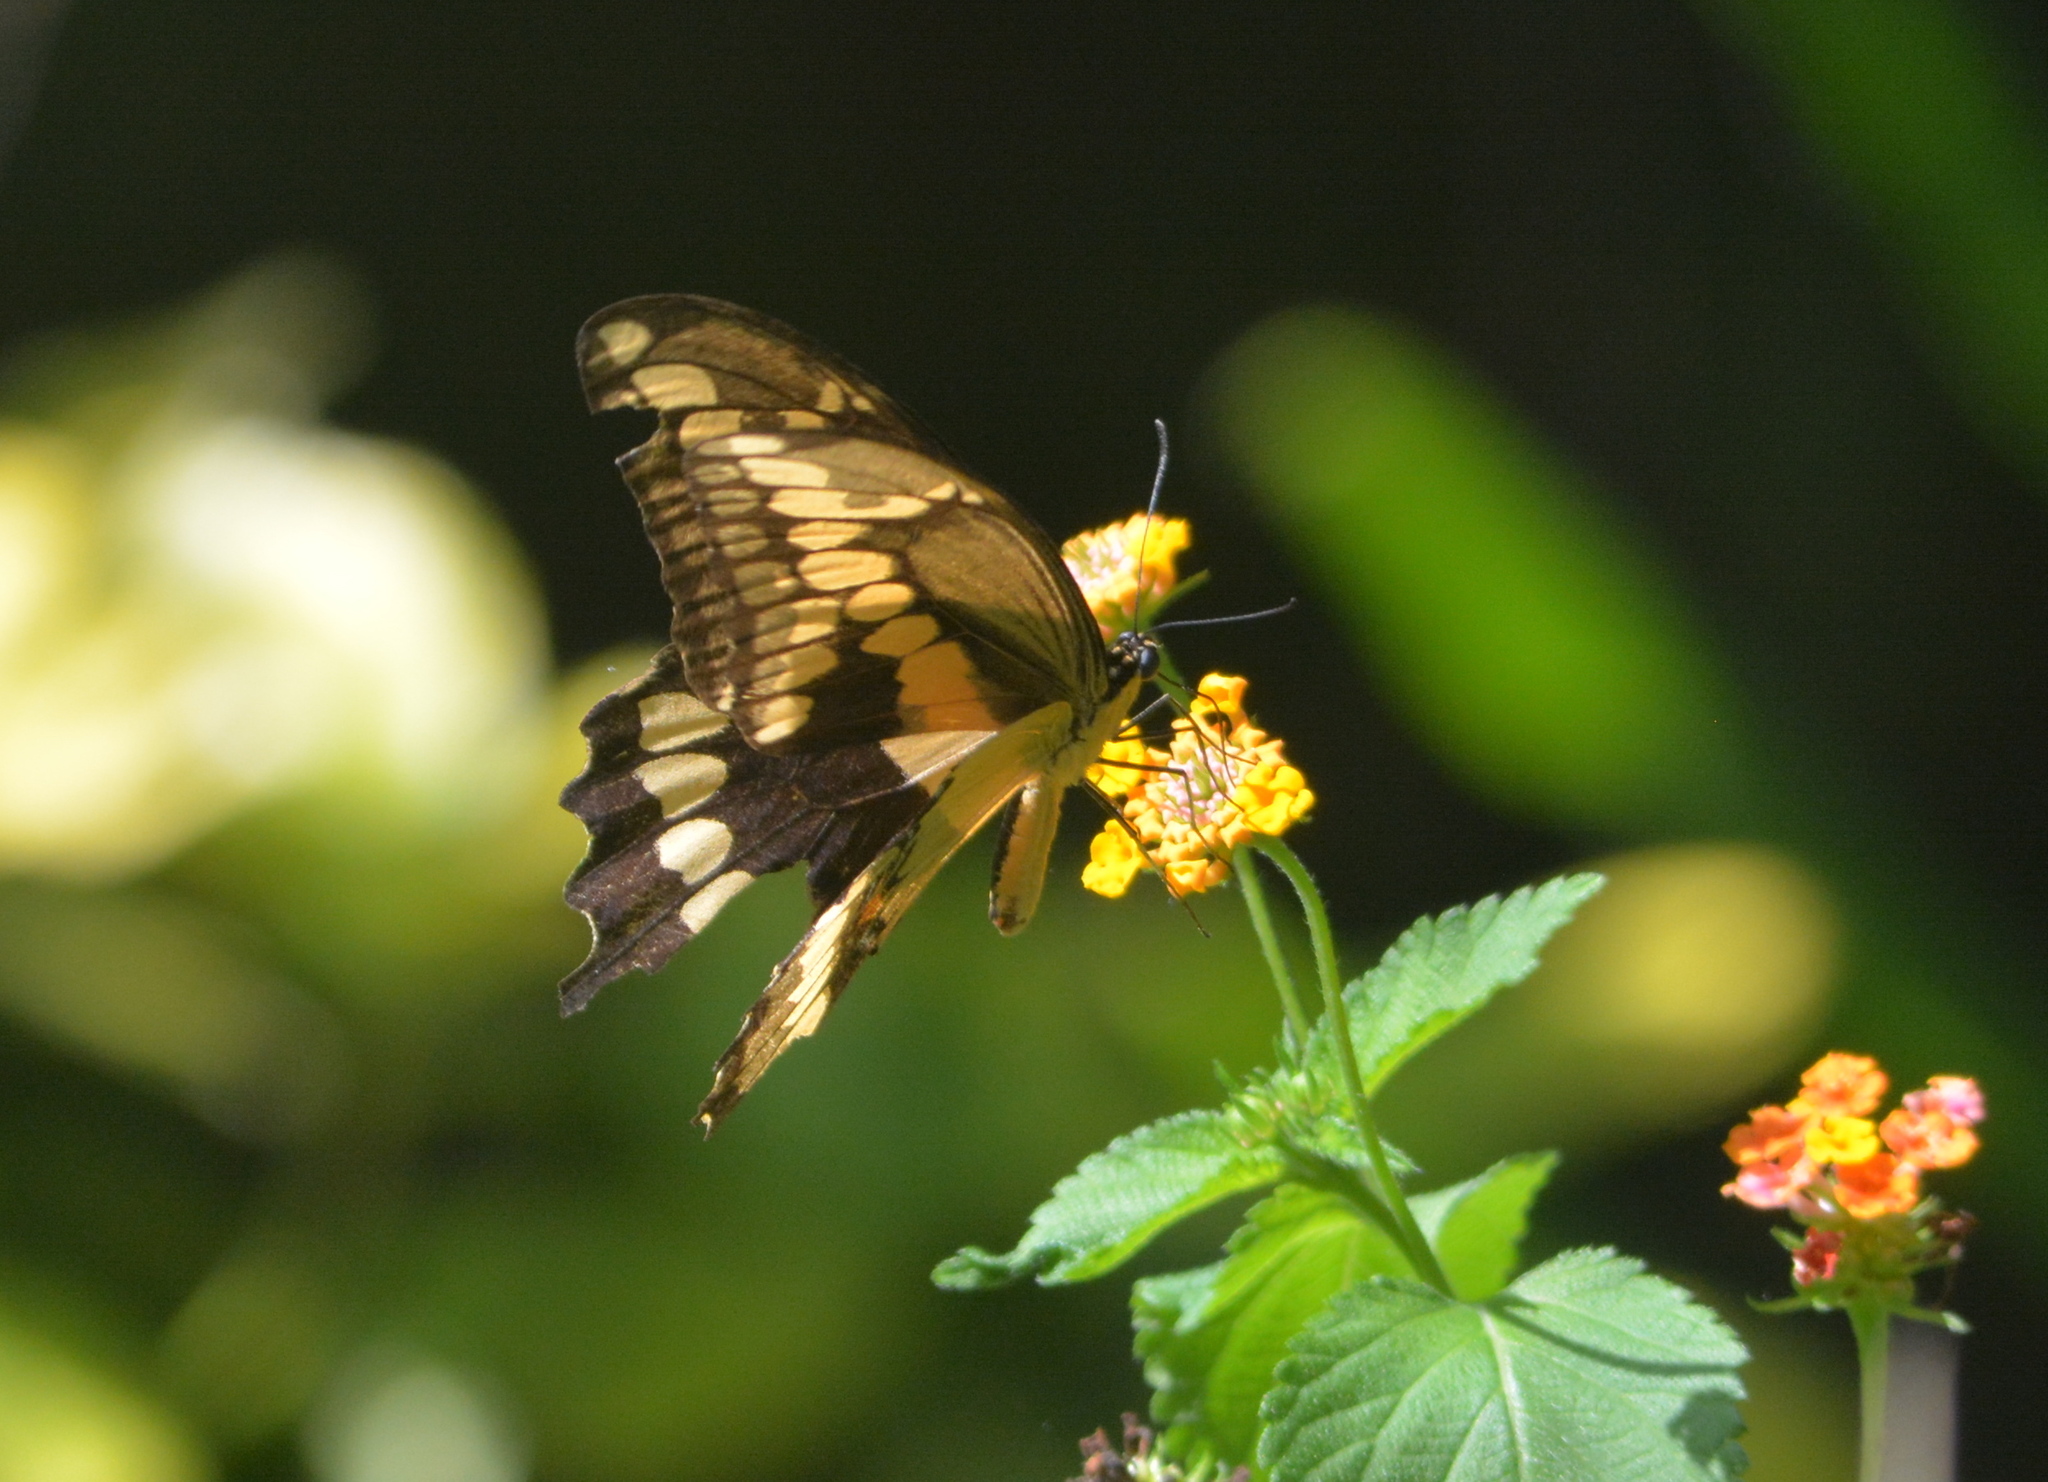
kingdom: Animalia
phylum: Arthropoda
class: Insecta
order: Lepidoptera
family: Papilionidae
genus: Papilio
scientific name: Papilio cresphontes
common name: Giant swallowtail
